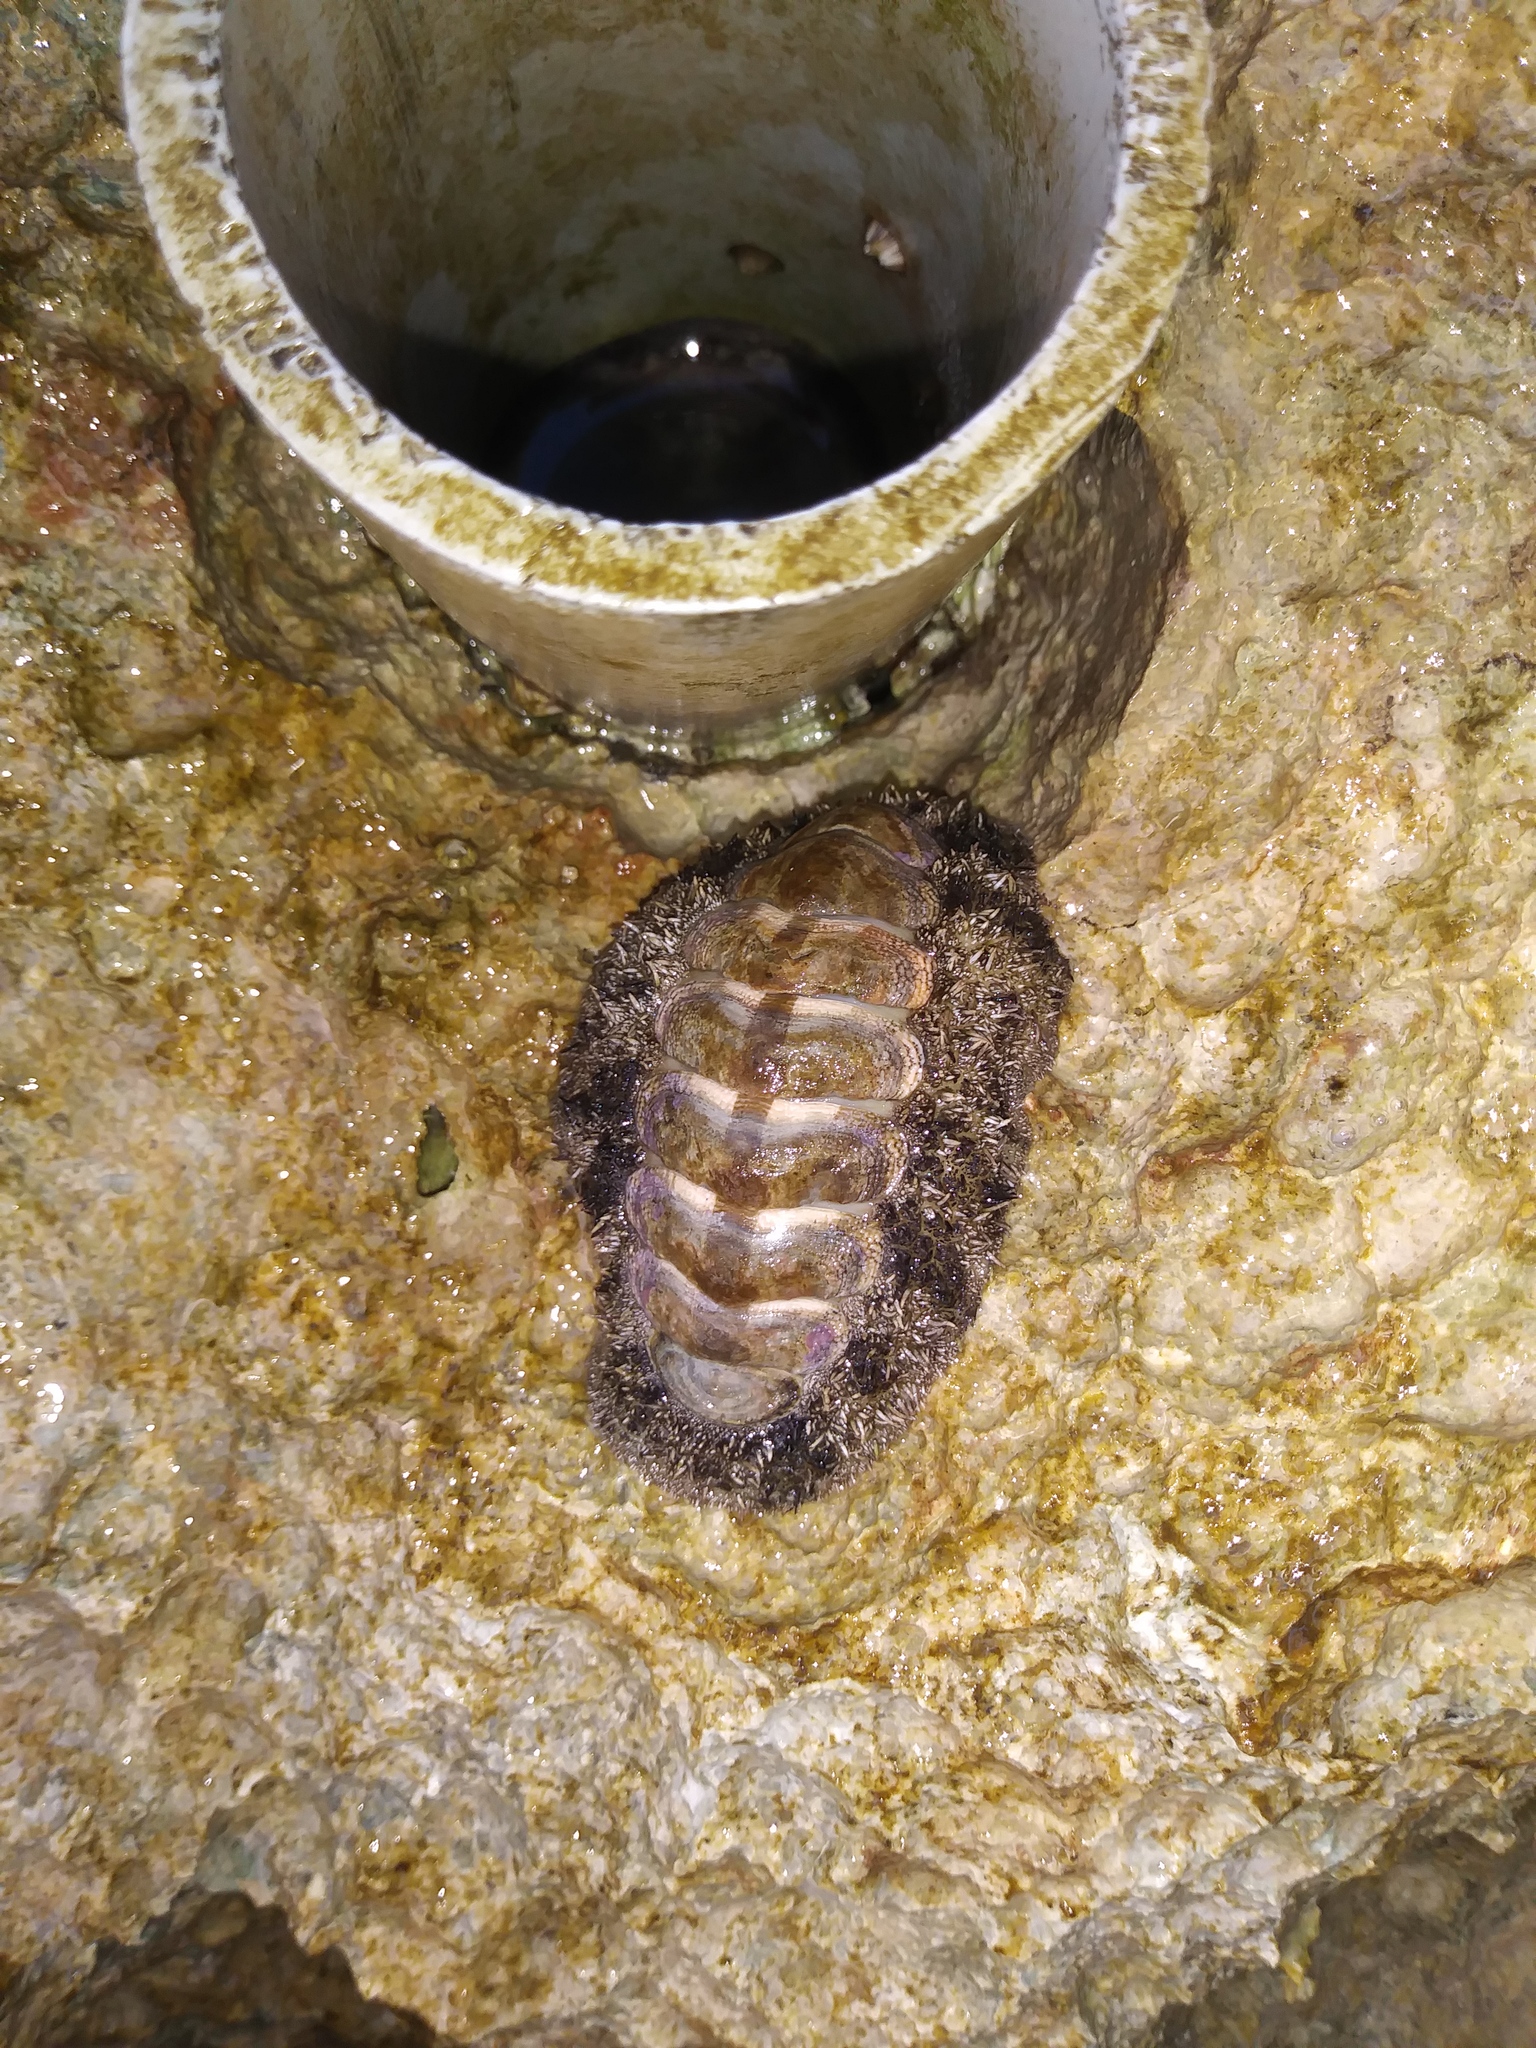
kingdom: Animalia
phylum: Mollusca
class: Polyplacophora
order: Chitonida
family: Chitonidae
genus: Acanthopleura
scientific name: Acanthopleura granulata
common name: West indian fuzzy chiton
